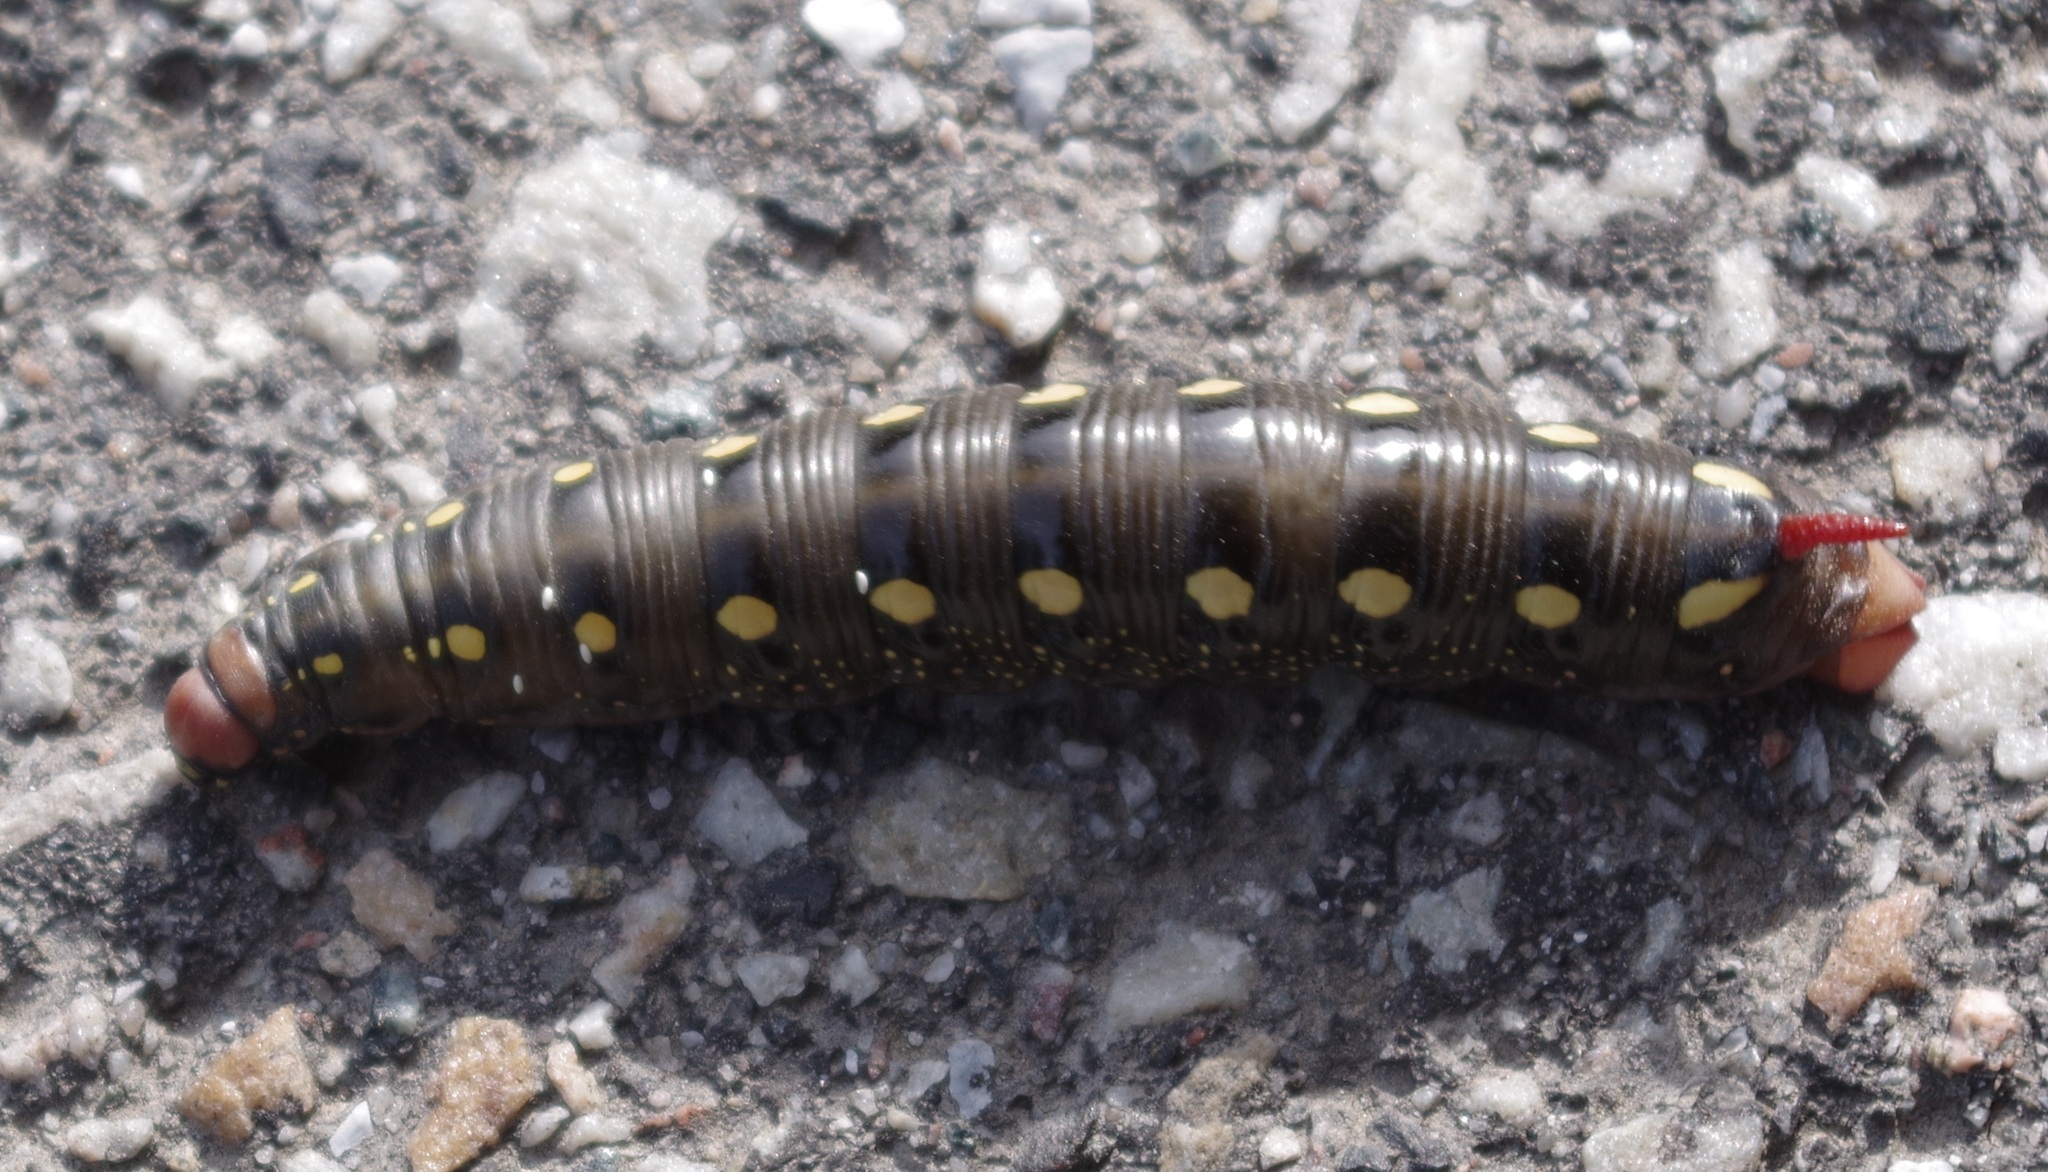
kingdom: Animalia
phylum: Arthropoda
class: Insecta
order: Lepidoptera
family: Sphingidae
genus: Hyles
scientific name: Hyles gallii
